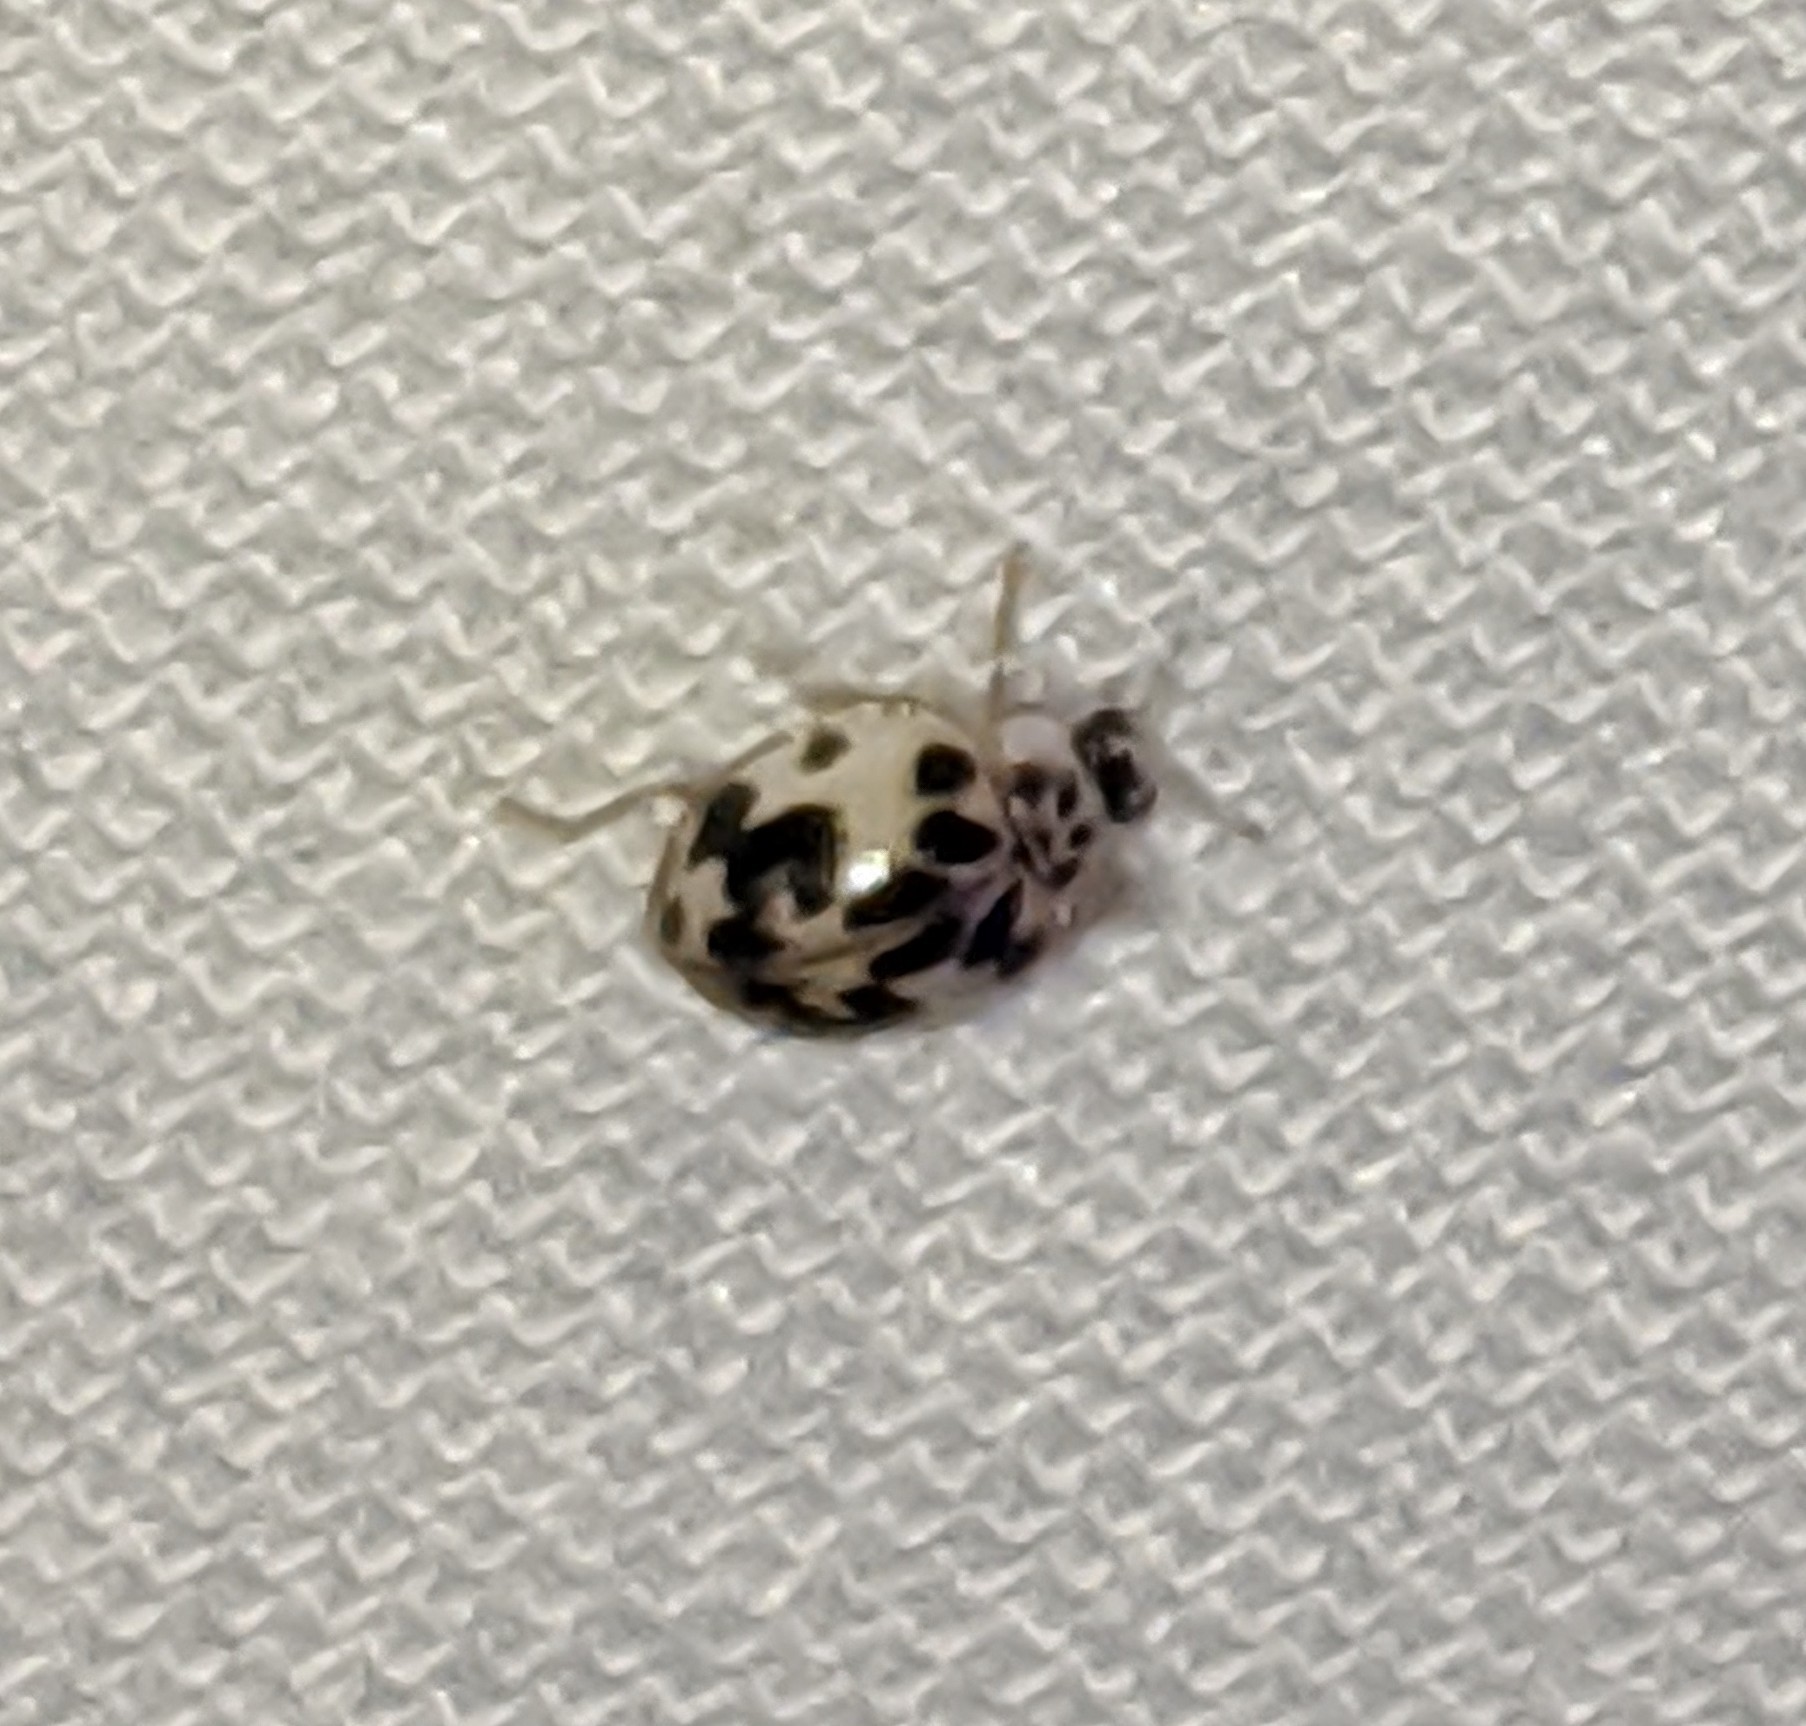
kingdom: Animalia
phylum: Arthropoda
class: Insecta
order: Coleoptera
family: Coccinellidae
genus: Psyllobora
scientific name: Psyllobora borealis
